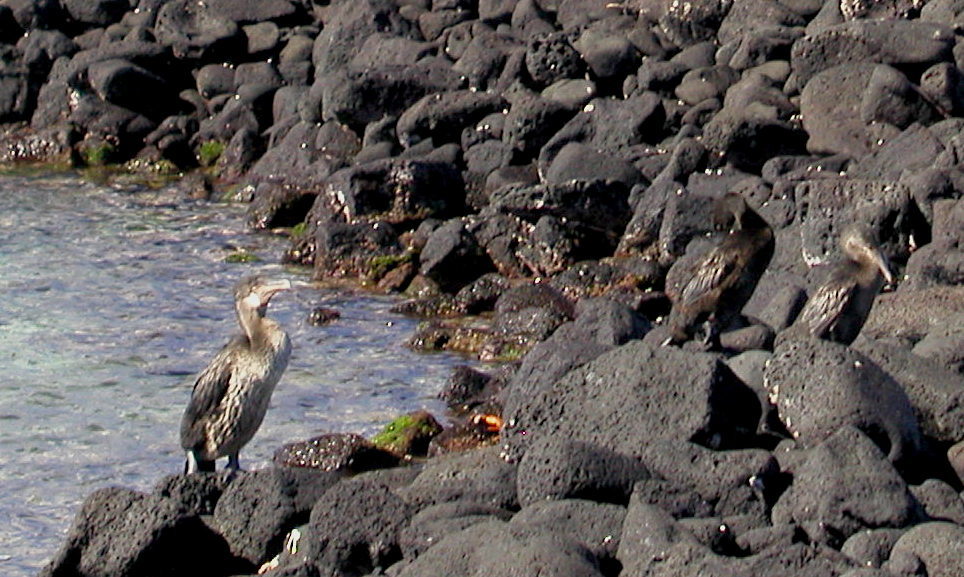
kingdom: Animalia
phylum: Chordata
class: Aves
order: Suliformes
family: Phalacrocoracidae
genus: Phalacrocorax
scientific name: Phalacrocorax harrisi
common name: Flightless cormorant
